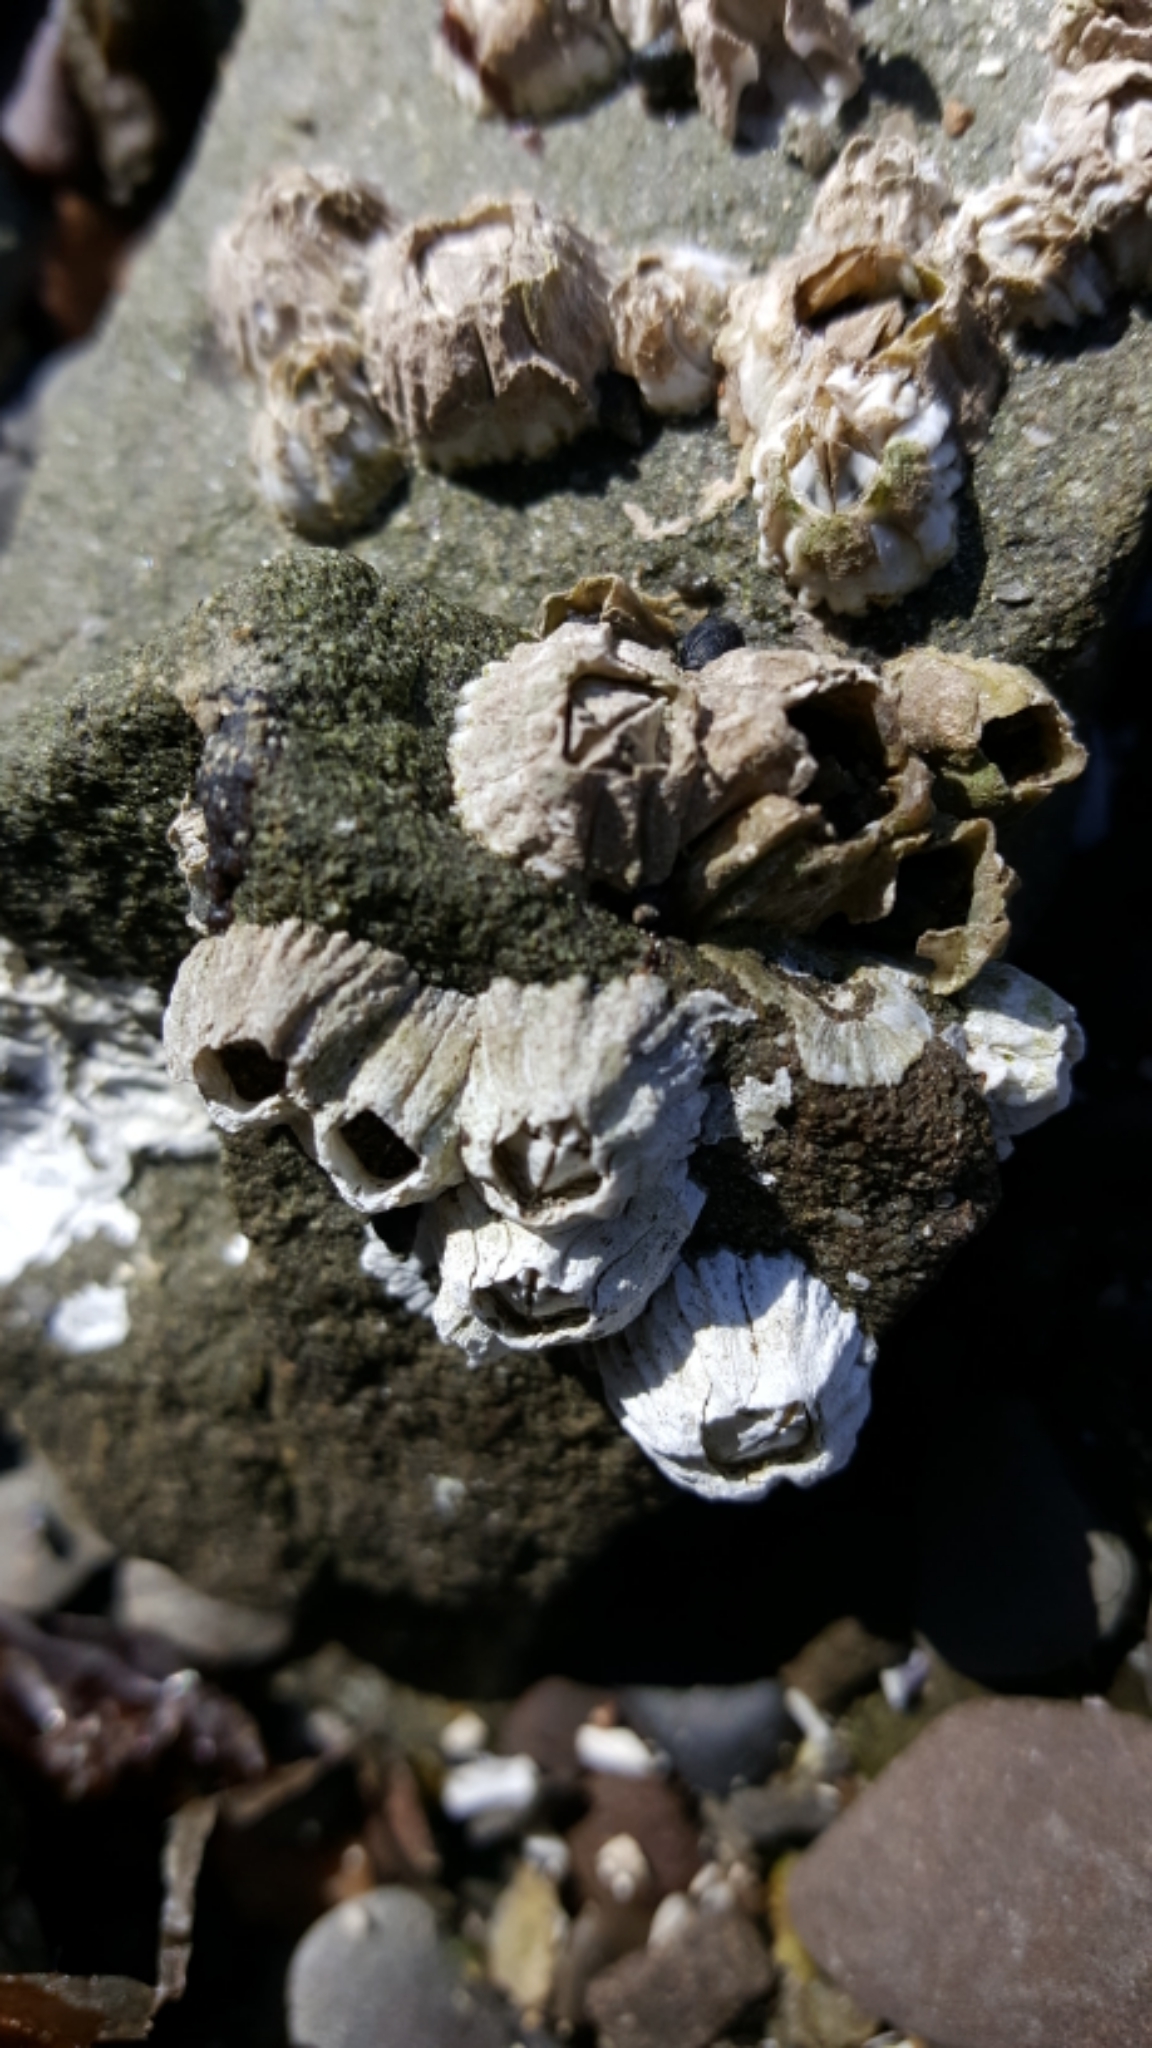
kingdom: Animalia
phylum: Arthropoda
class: Maxillopoda
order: Sessilia
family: Balanidae
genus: Balanus
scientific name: Balanus glandula
